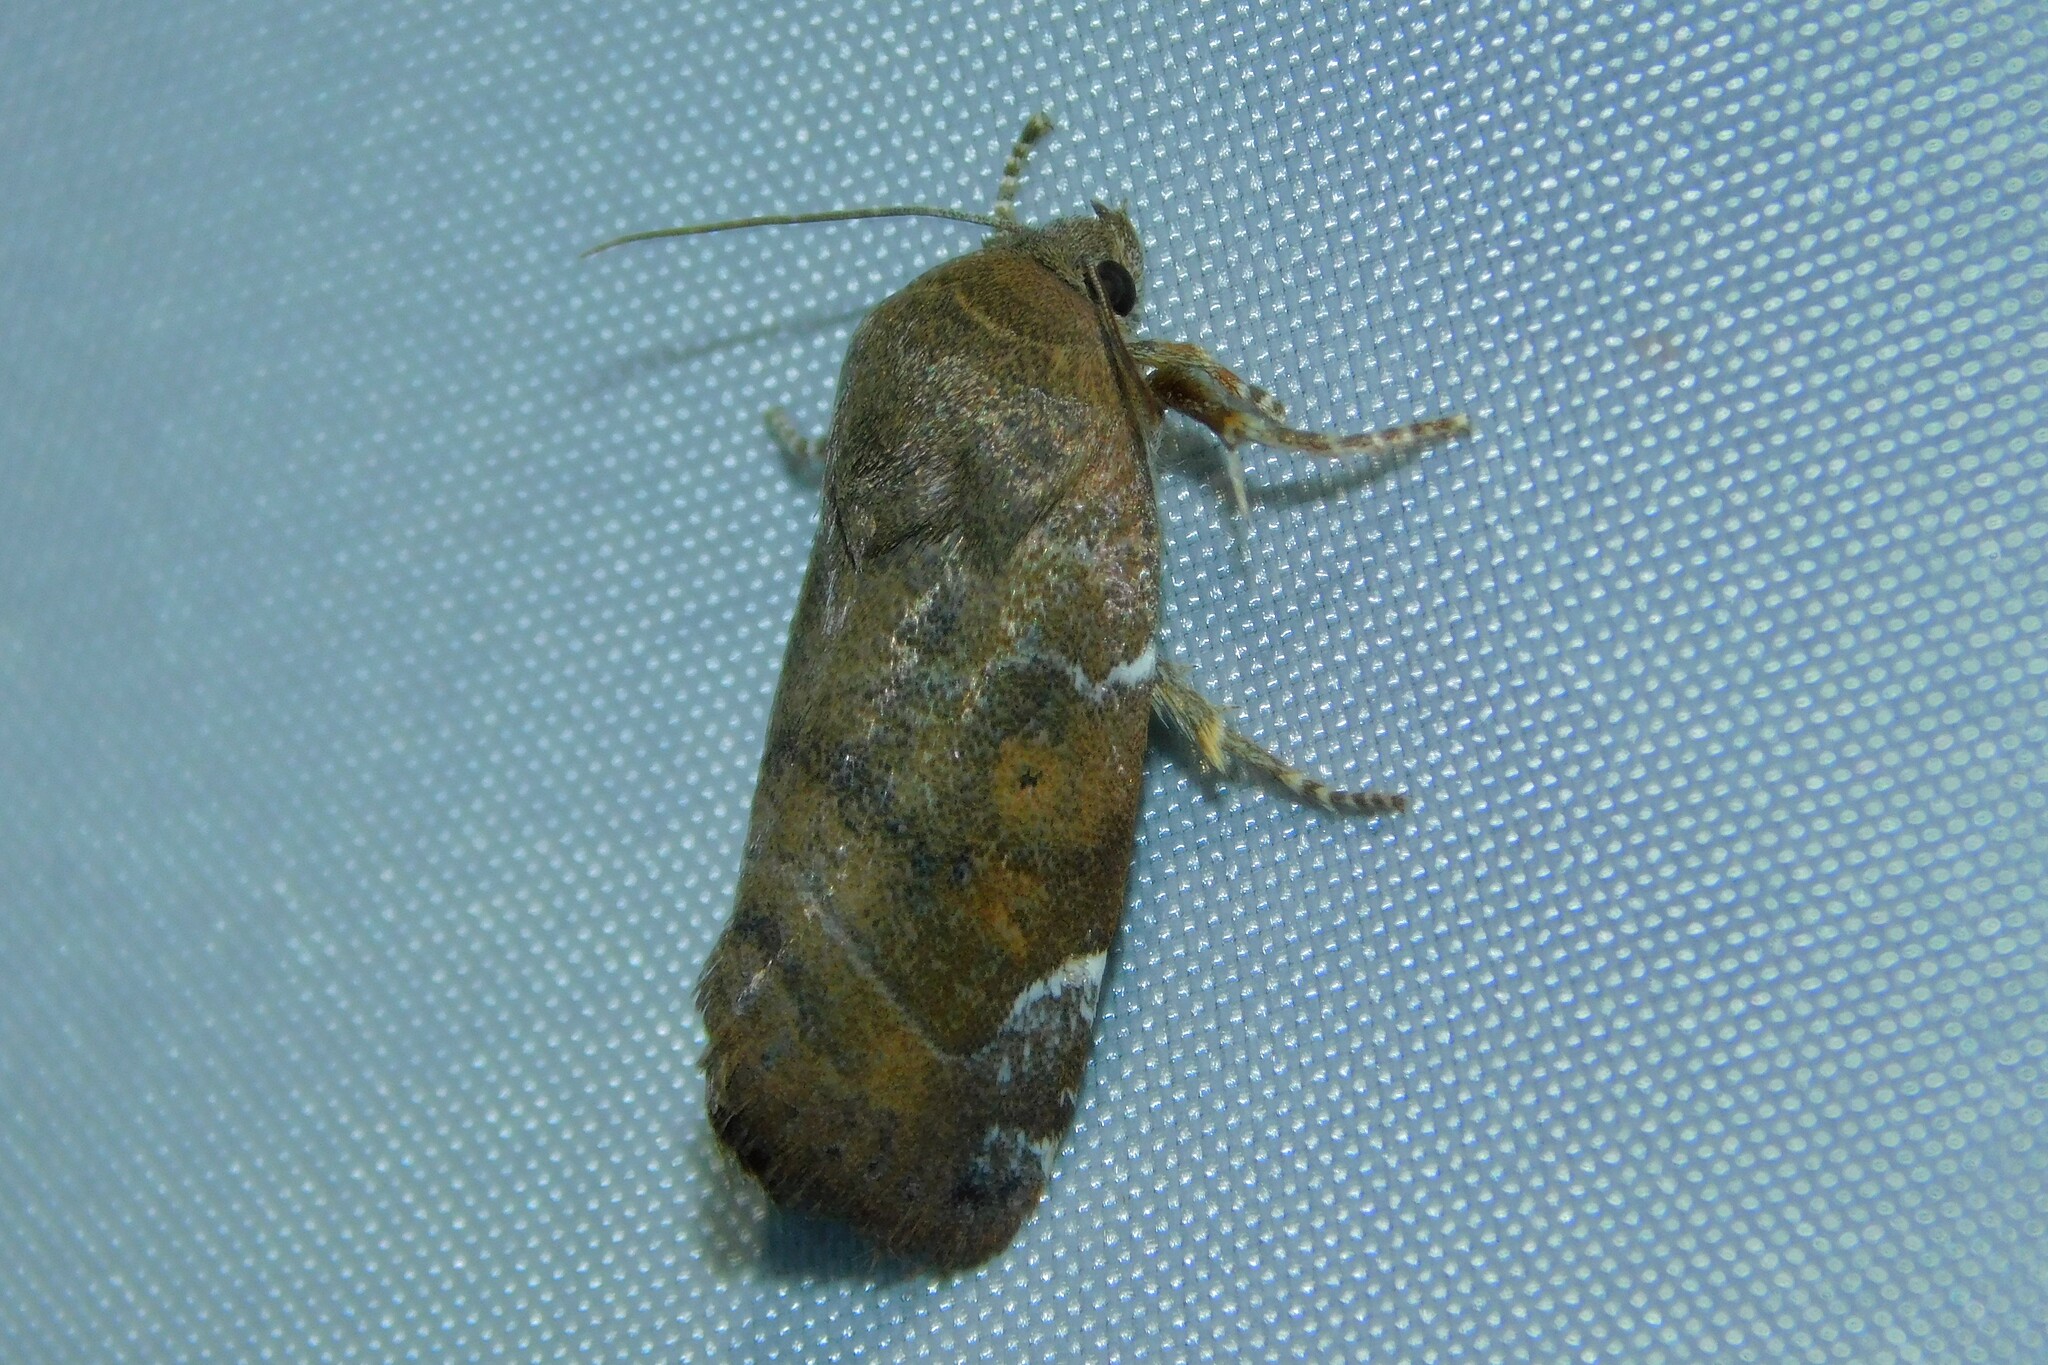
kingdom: Animalia
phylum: Arthropoda
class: Insecta
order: Lepidoptera
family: Noctuidae
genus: Cosmia
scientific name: Cosmia affinis
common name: Lesser-spotted pinion
